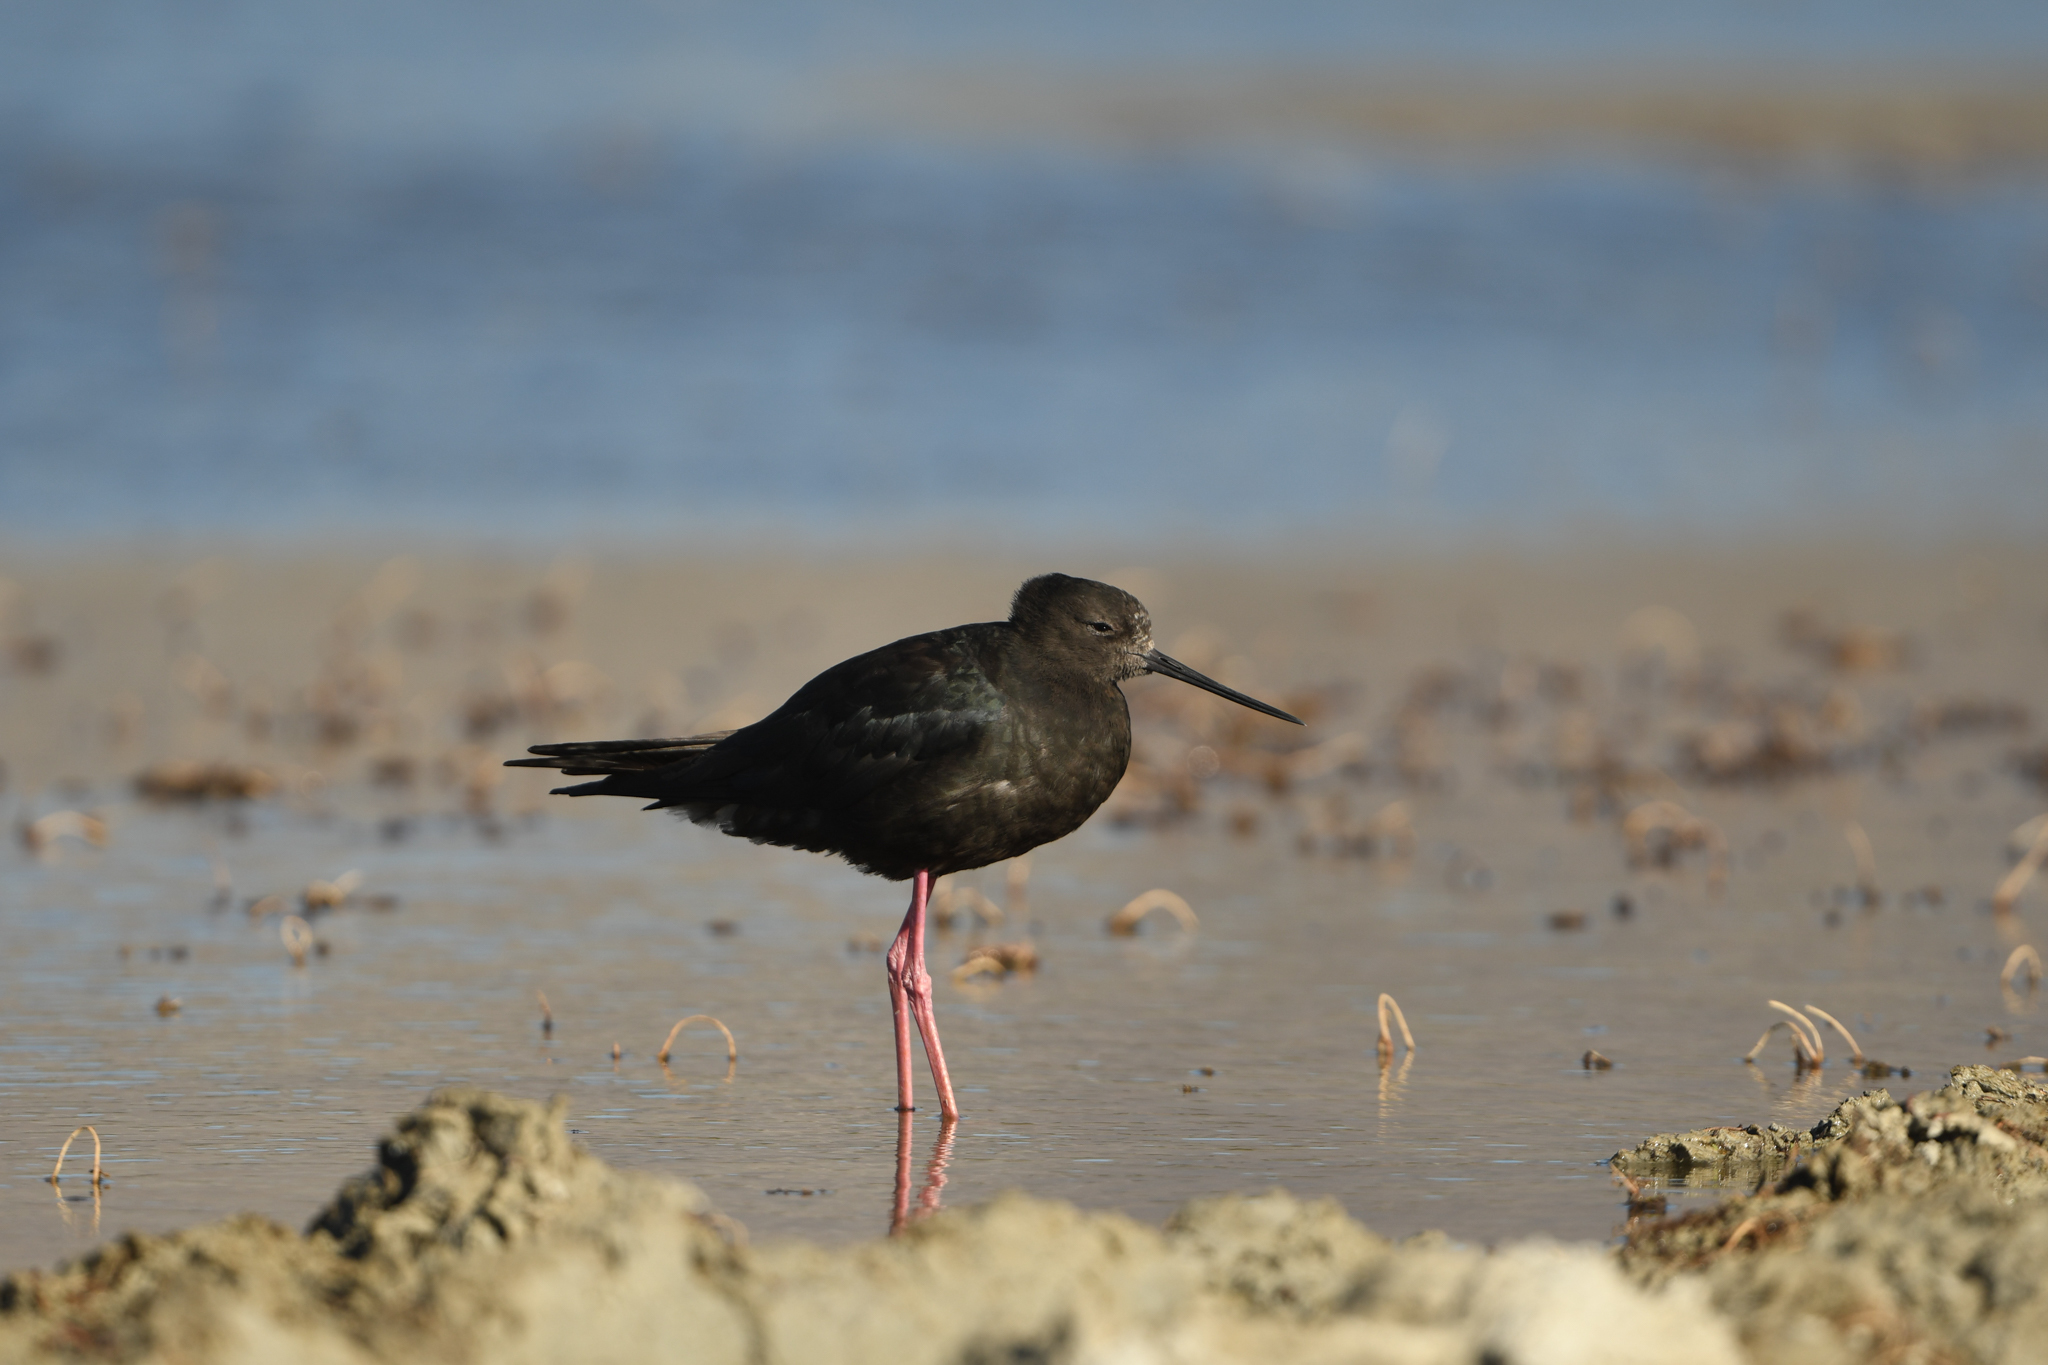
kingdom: Animalia
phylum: Chordata
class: Aves
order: Charadriiformes
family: Recurvirostridae
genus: Himantopus
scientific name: Himantopus novaezelandiae
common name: Black stilt
